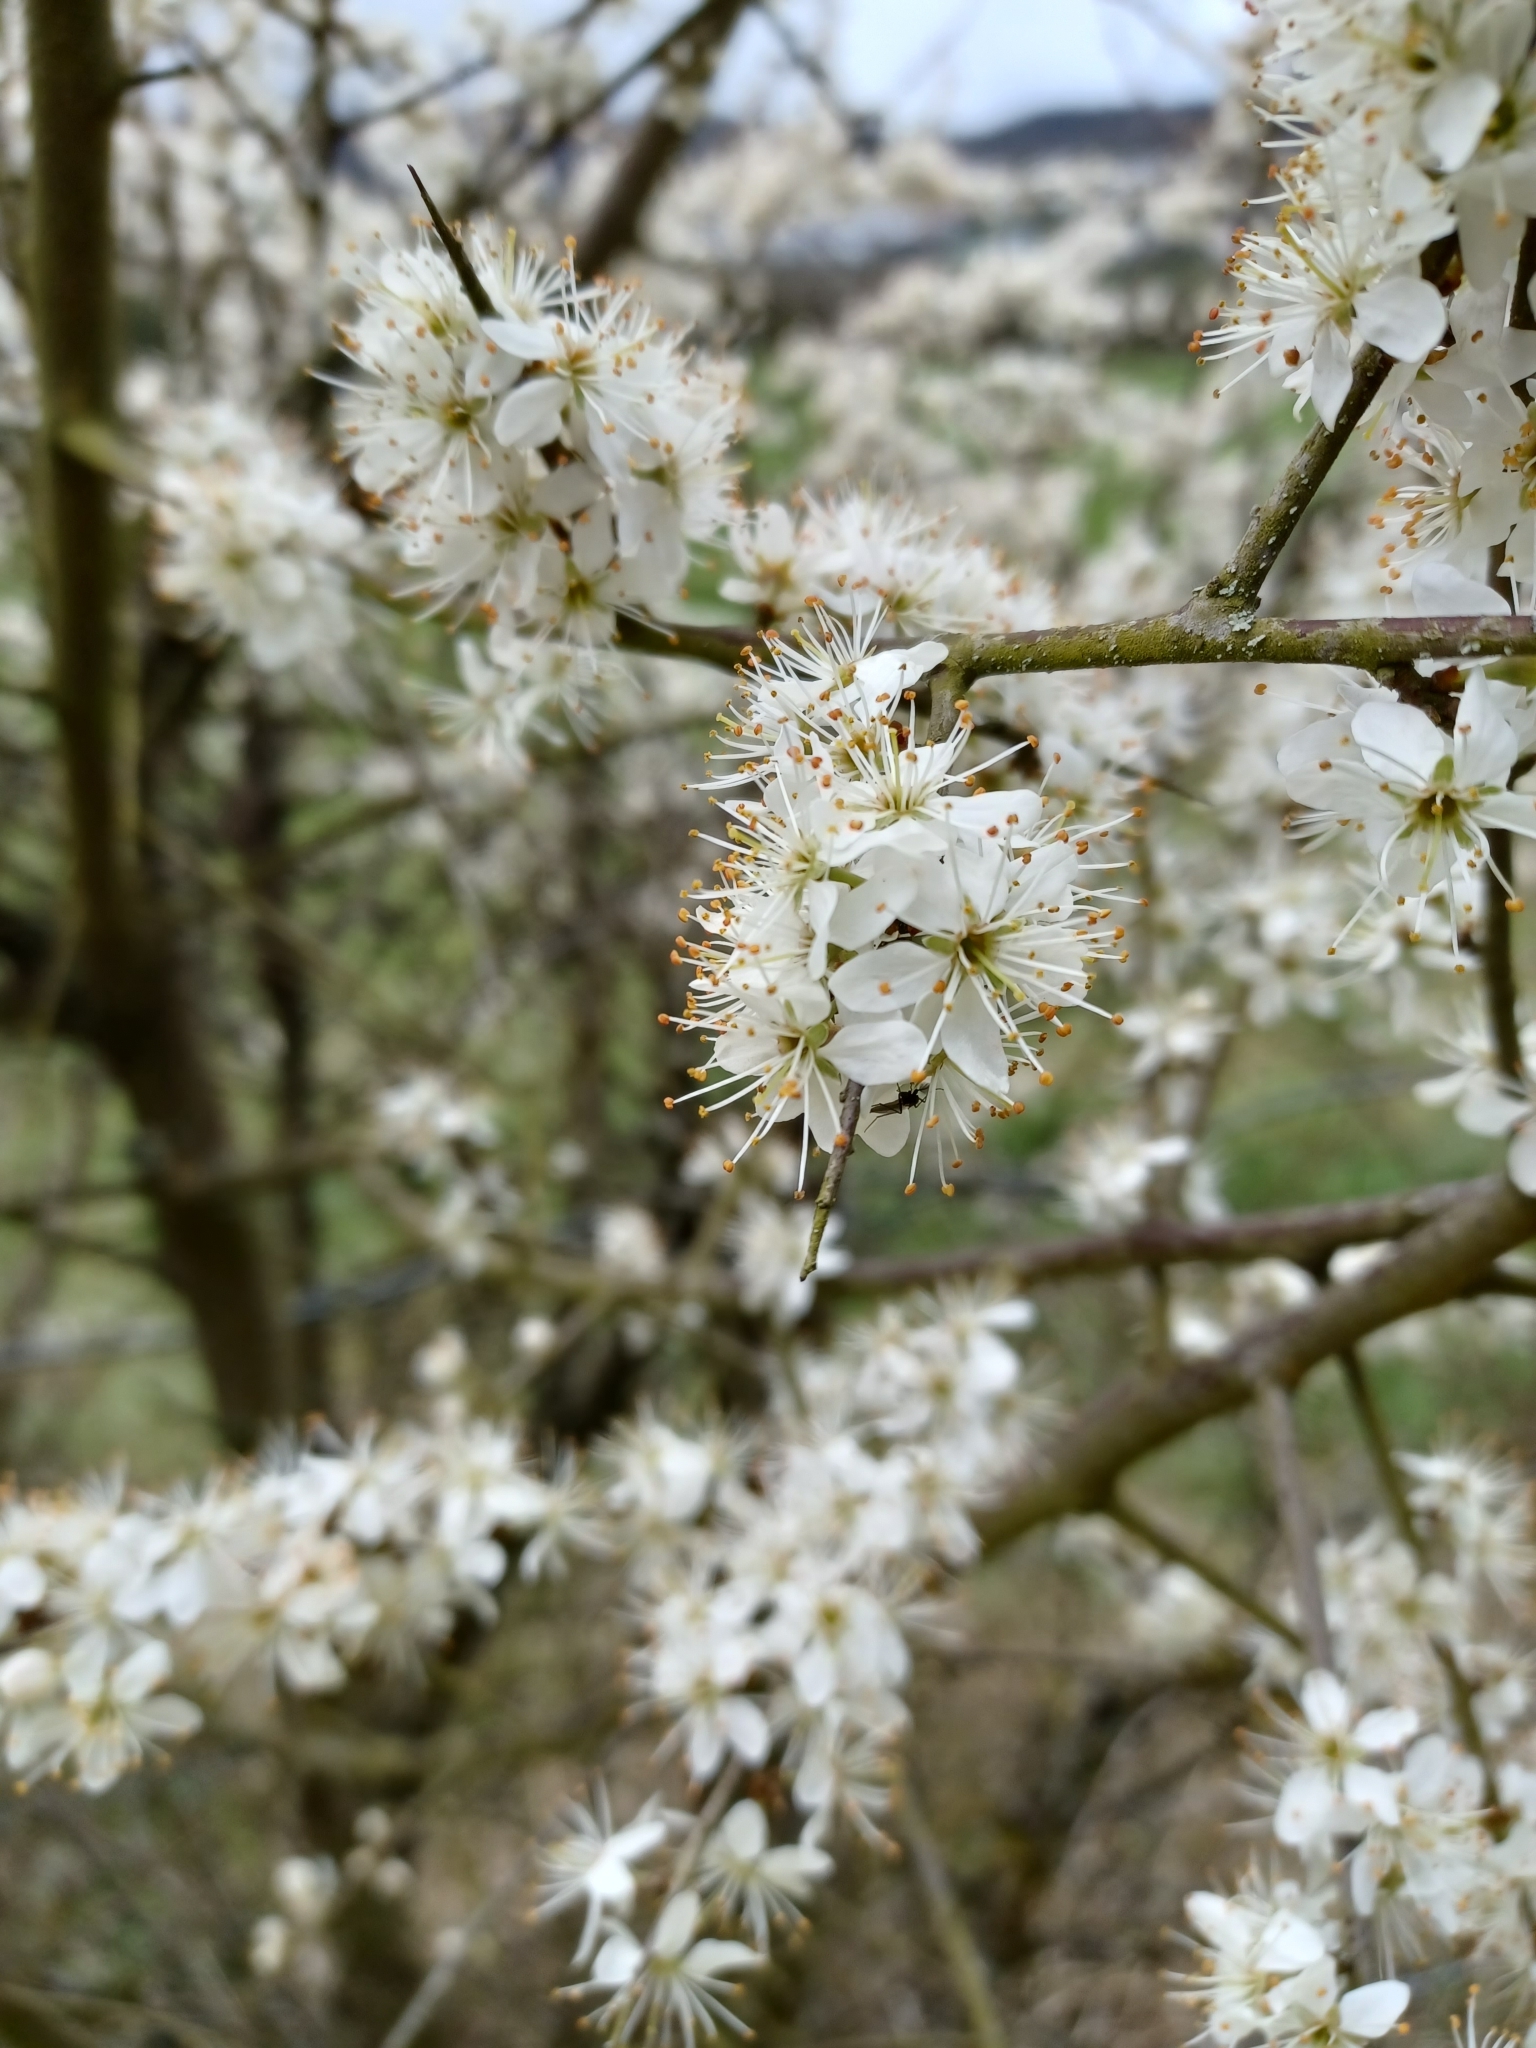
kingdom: Plantae
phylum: Tracheophyta
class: Magnoliopsida
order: Rosales
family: Rosaceae
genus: Prunus
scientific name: Prunus spinosa
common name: Blackthorn
